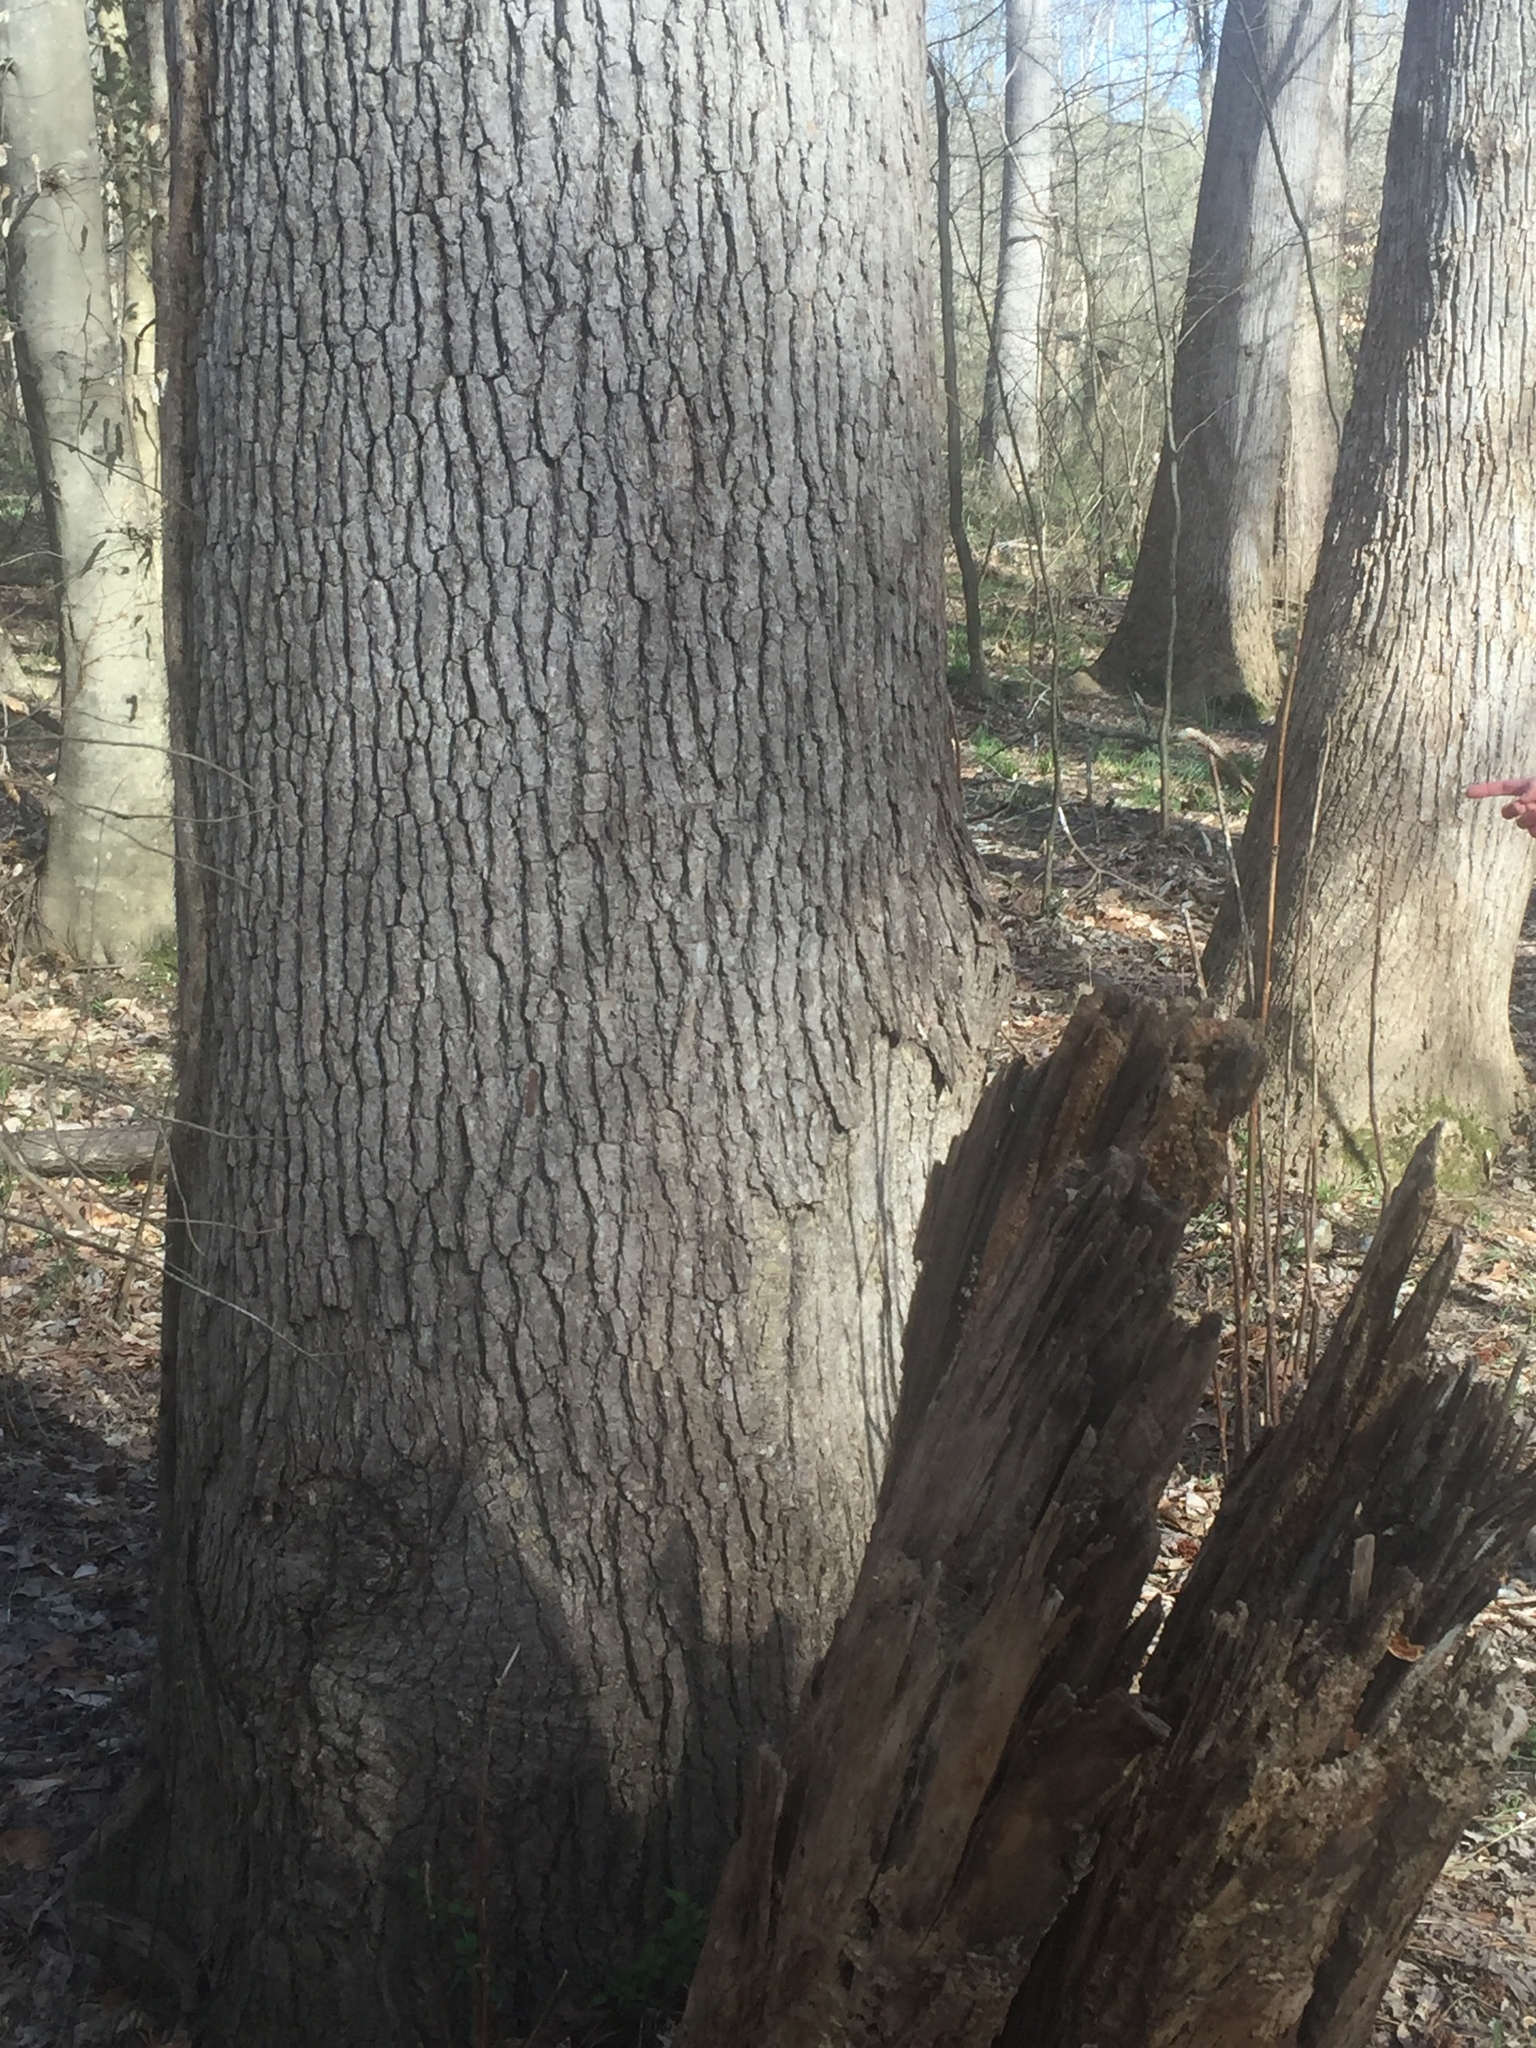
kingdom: Plantae
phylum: Tracheophyta
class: Magnoliopsida
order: Saxifragales
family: Altingiaceae
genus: Liquidambar
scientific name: Liquidambar styraciflua
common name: Sweet gum
